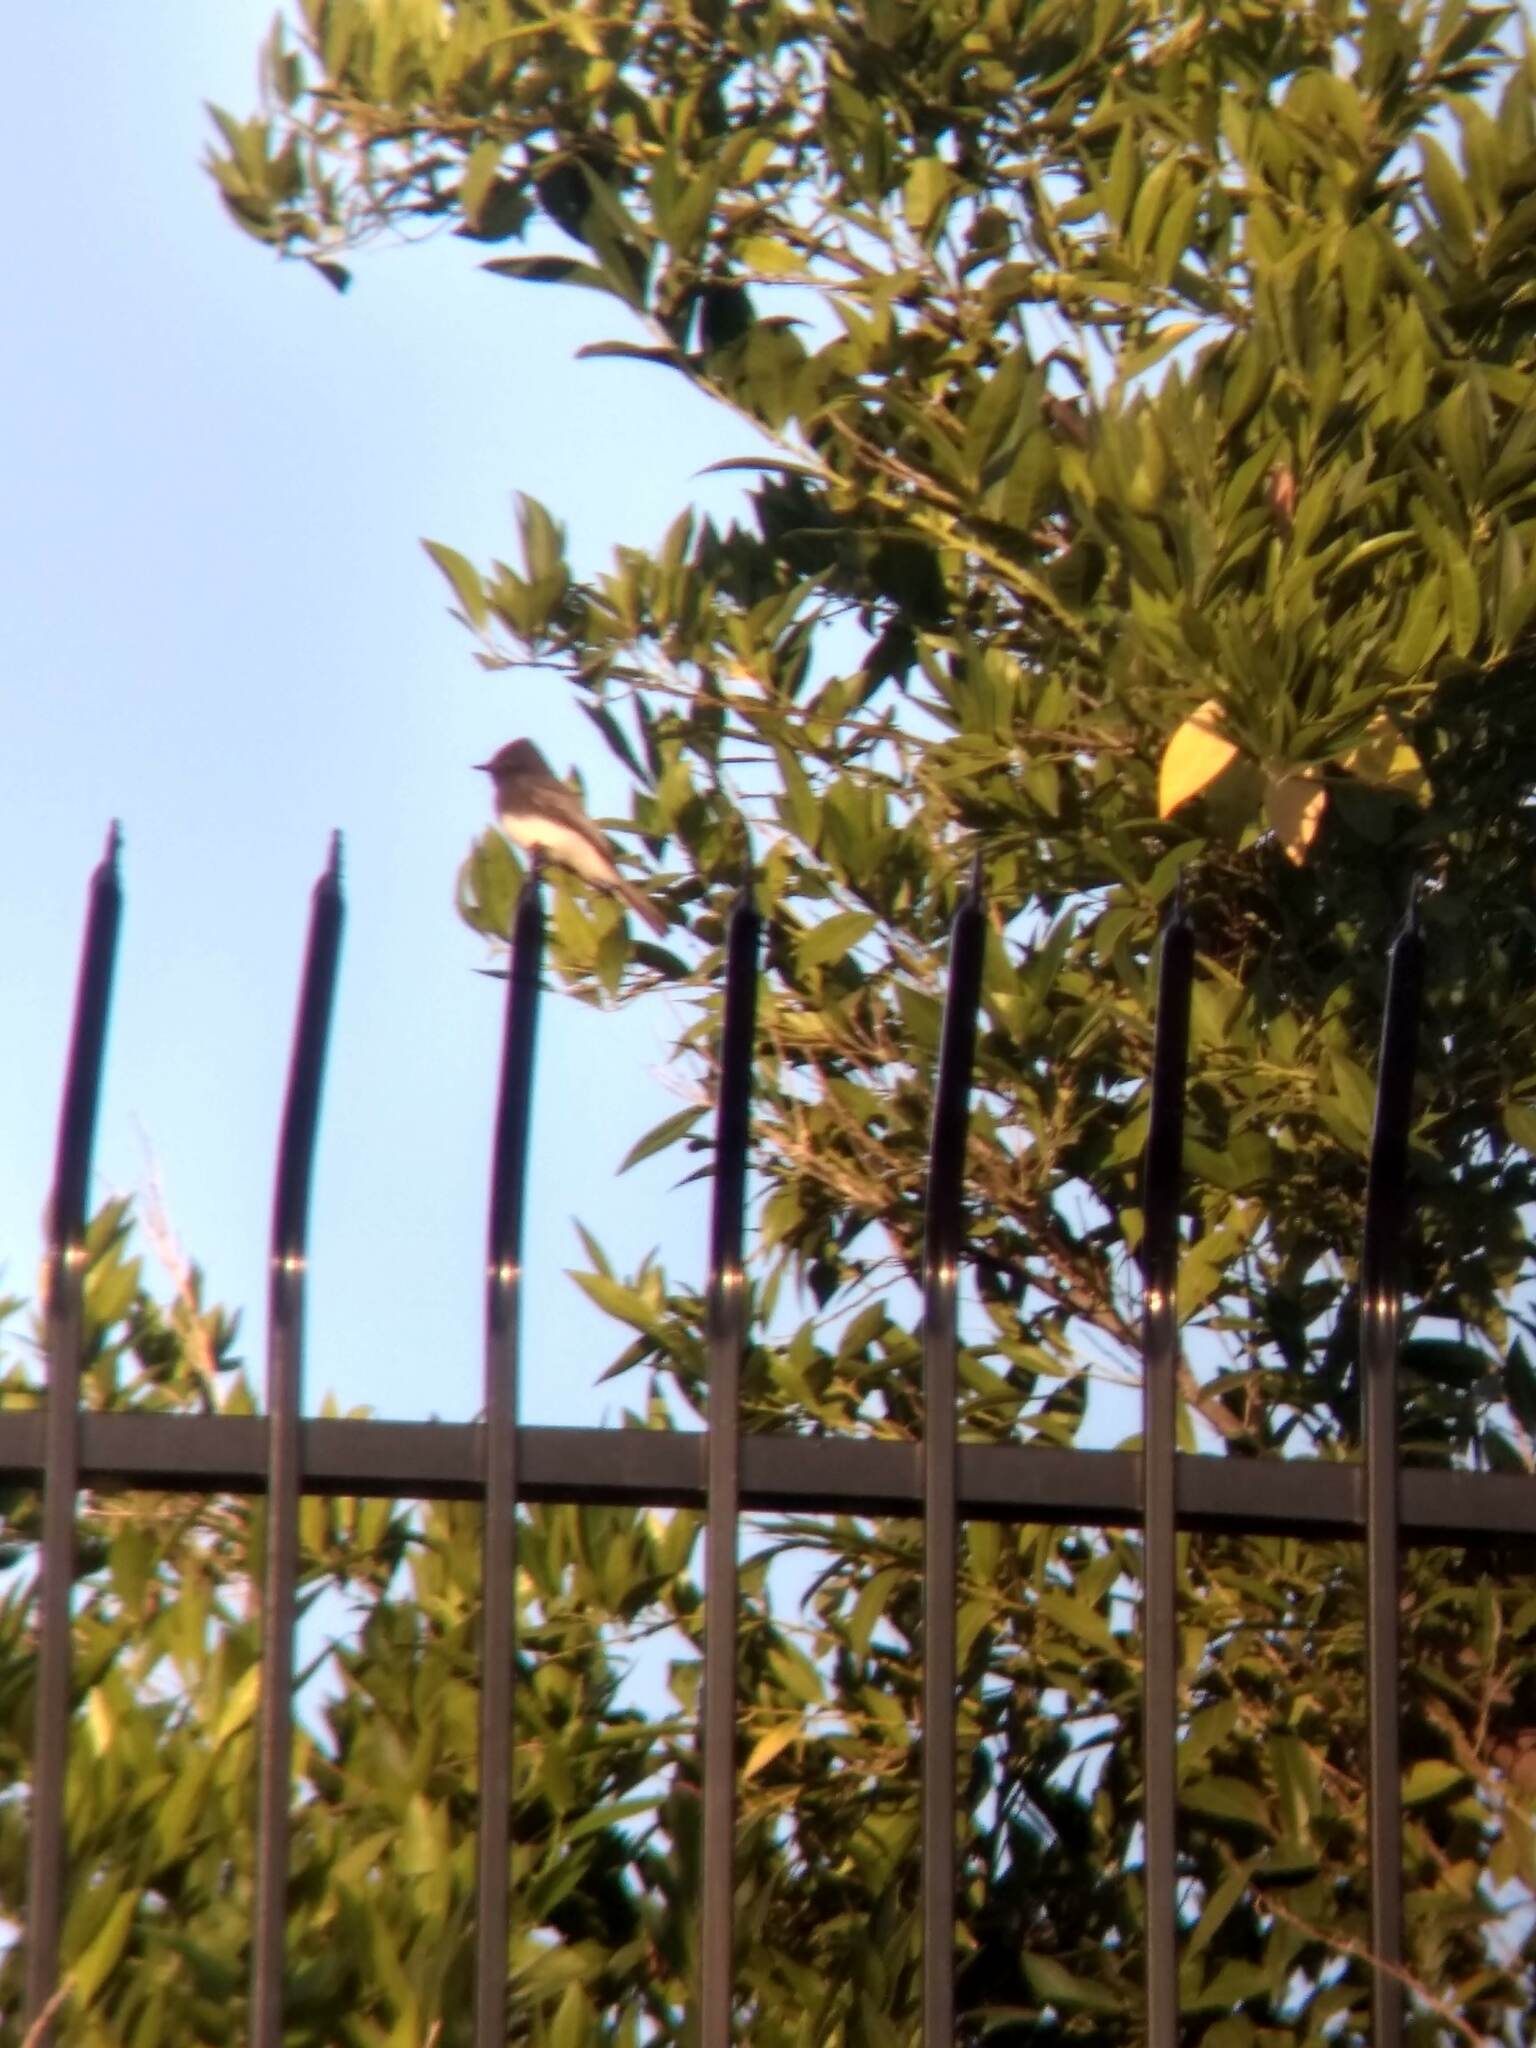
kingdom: Animalia
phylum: Chordata
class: Aves
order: Passeriformes
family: Tyrannidae
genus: Sayornis
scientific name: Sayornis nigricans
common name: Black phoebe
